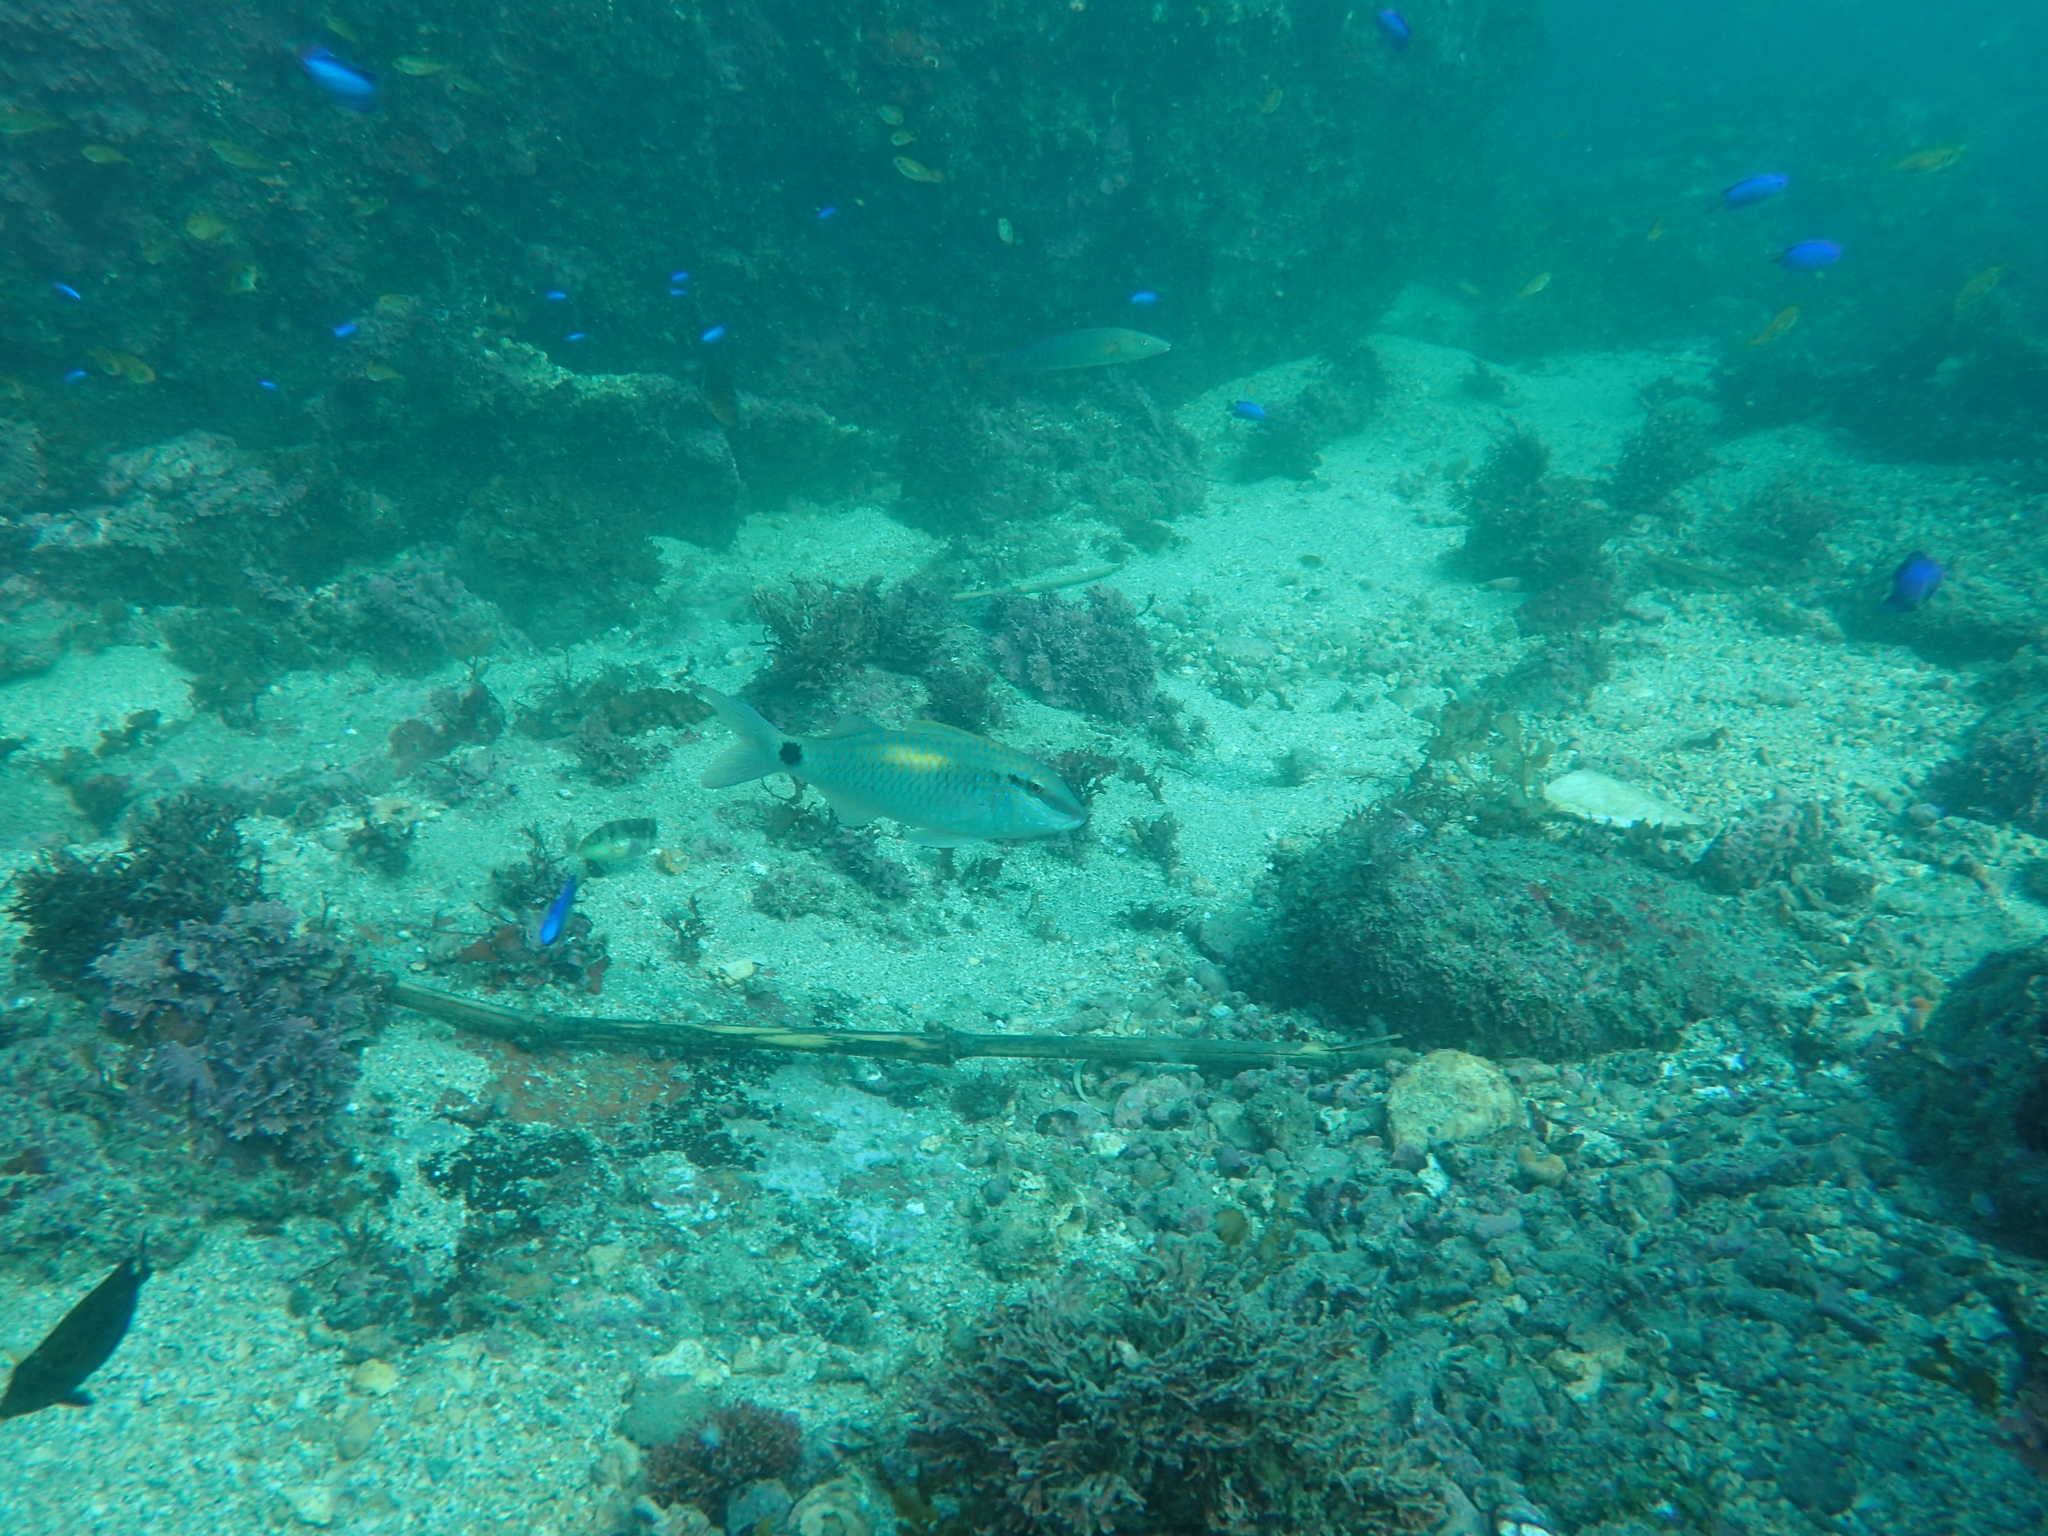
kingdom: Animalia
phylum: Chordata
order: Perciformes
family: Mullidae
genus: Parupeneus
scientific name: Parupeneus indicus
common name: Indian goatfish
